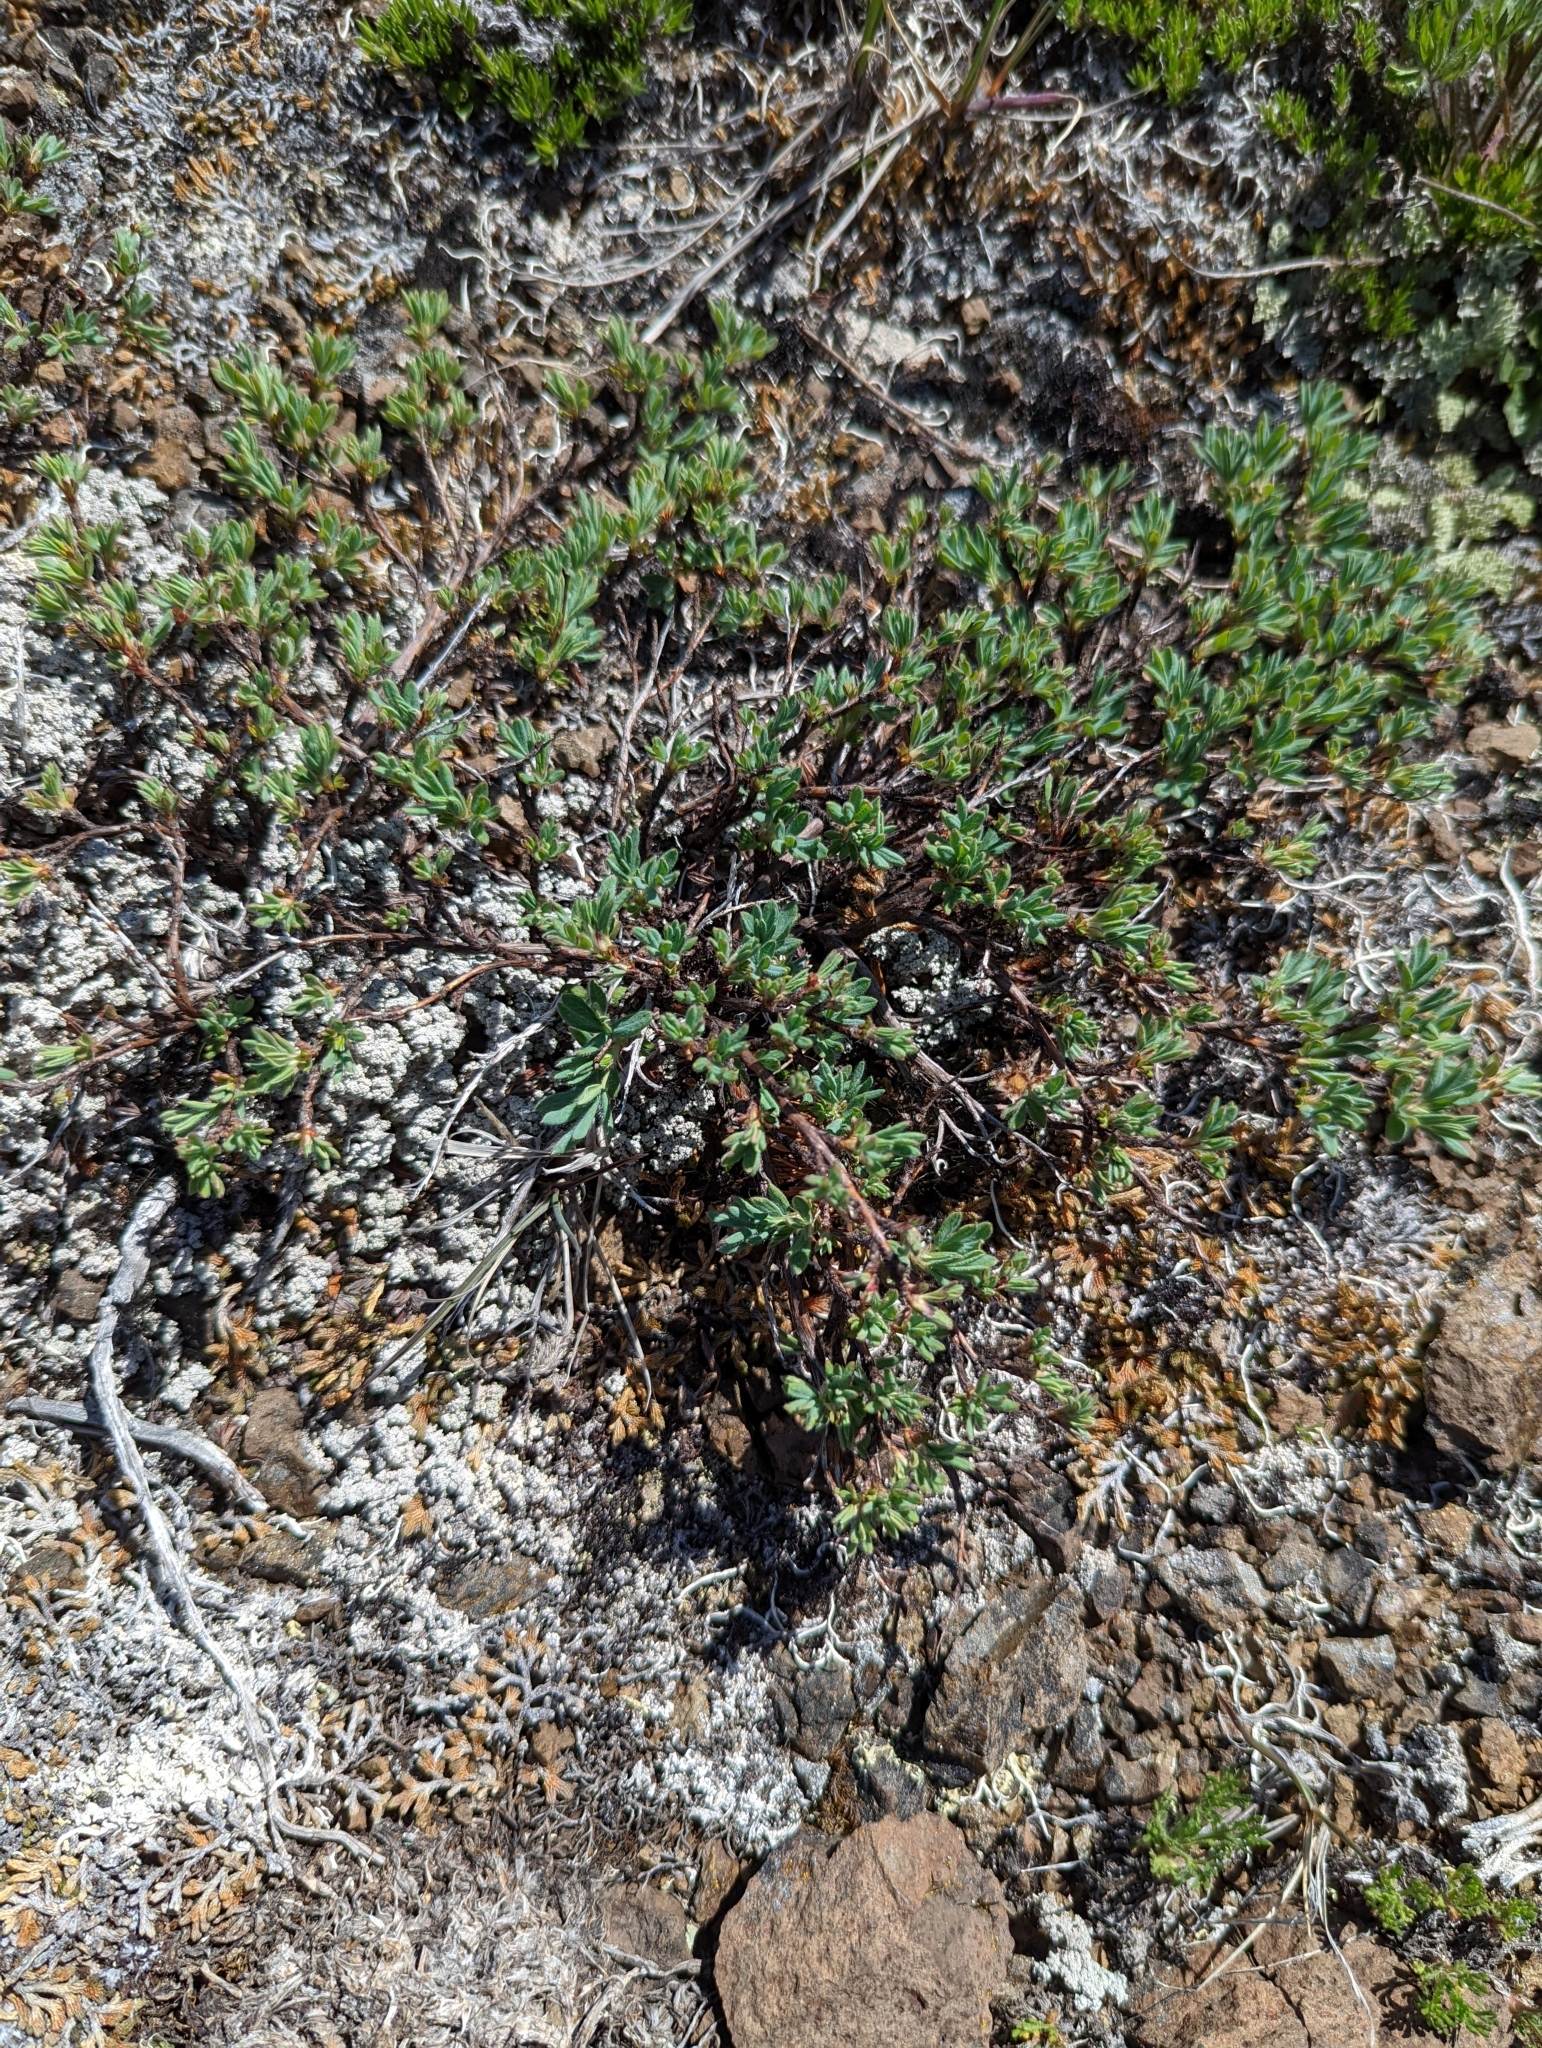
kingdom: Plantae
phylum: Tracheophyta
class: Magnoliopsida
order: Rosales
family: Rosaceae
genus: Dasiphora
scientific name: Dasiphora fruticosa
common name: Shrubby cinquefoil
